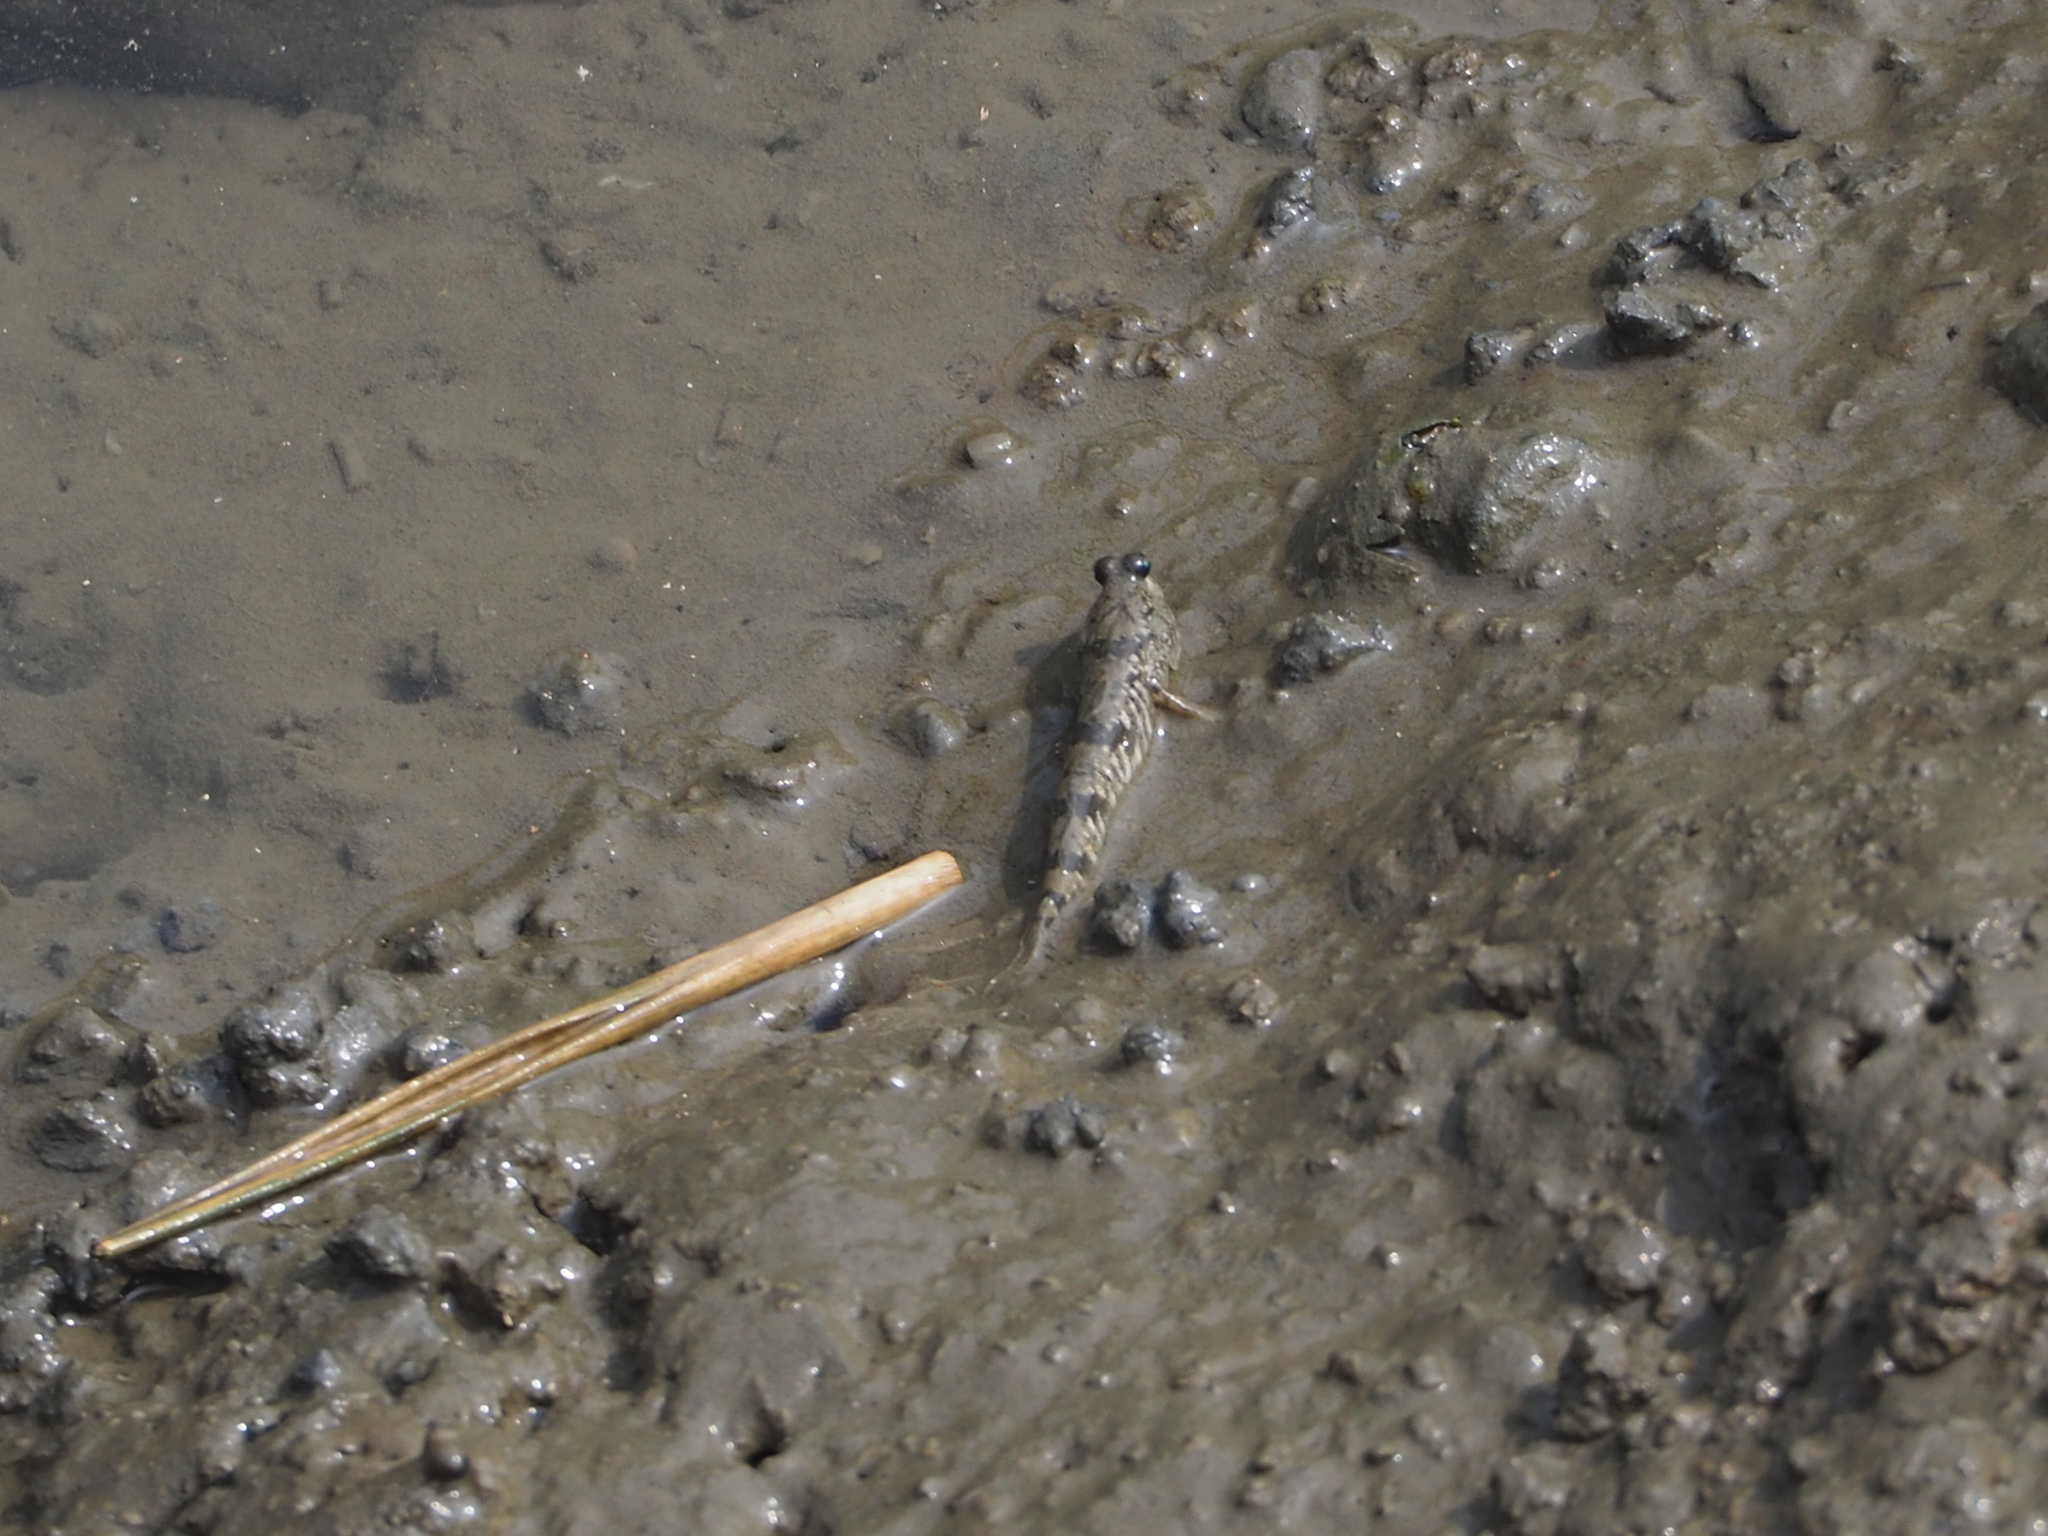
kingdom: Animalia
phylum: Chordata
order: Perciformes
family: Gobiidae
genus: Periophthalmus
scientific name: Periophthalmus modestus
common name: Black goby
